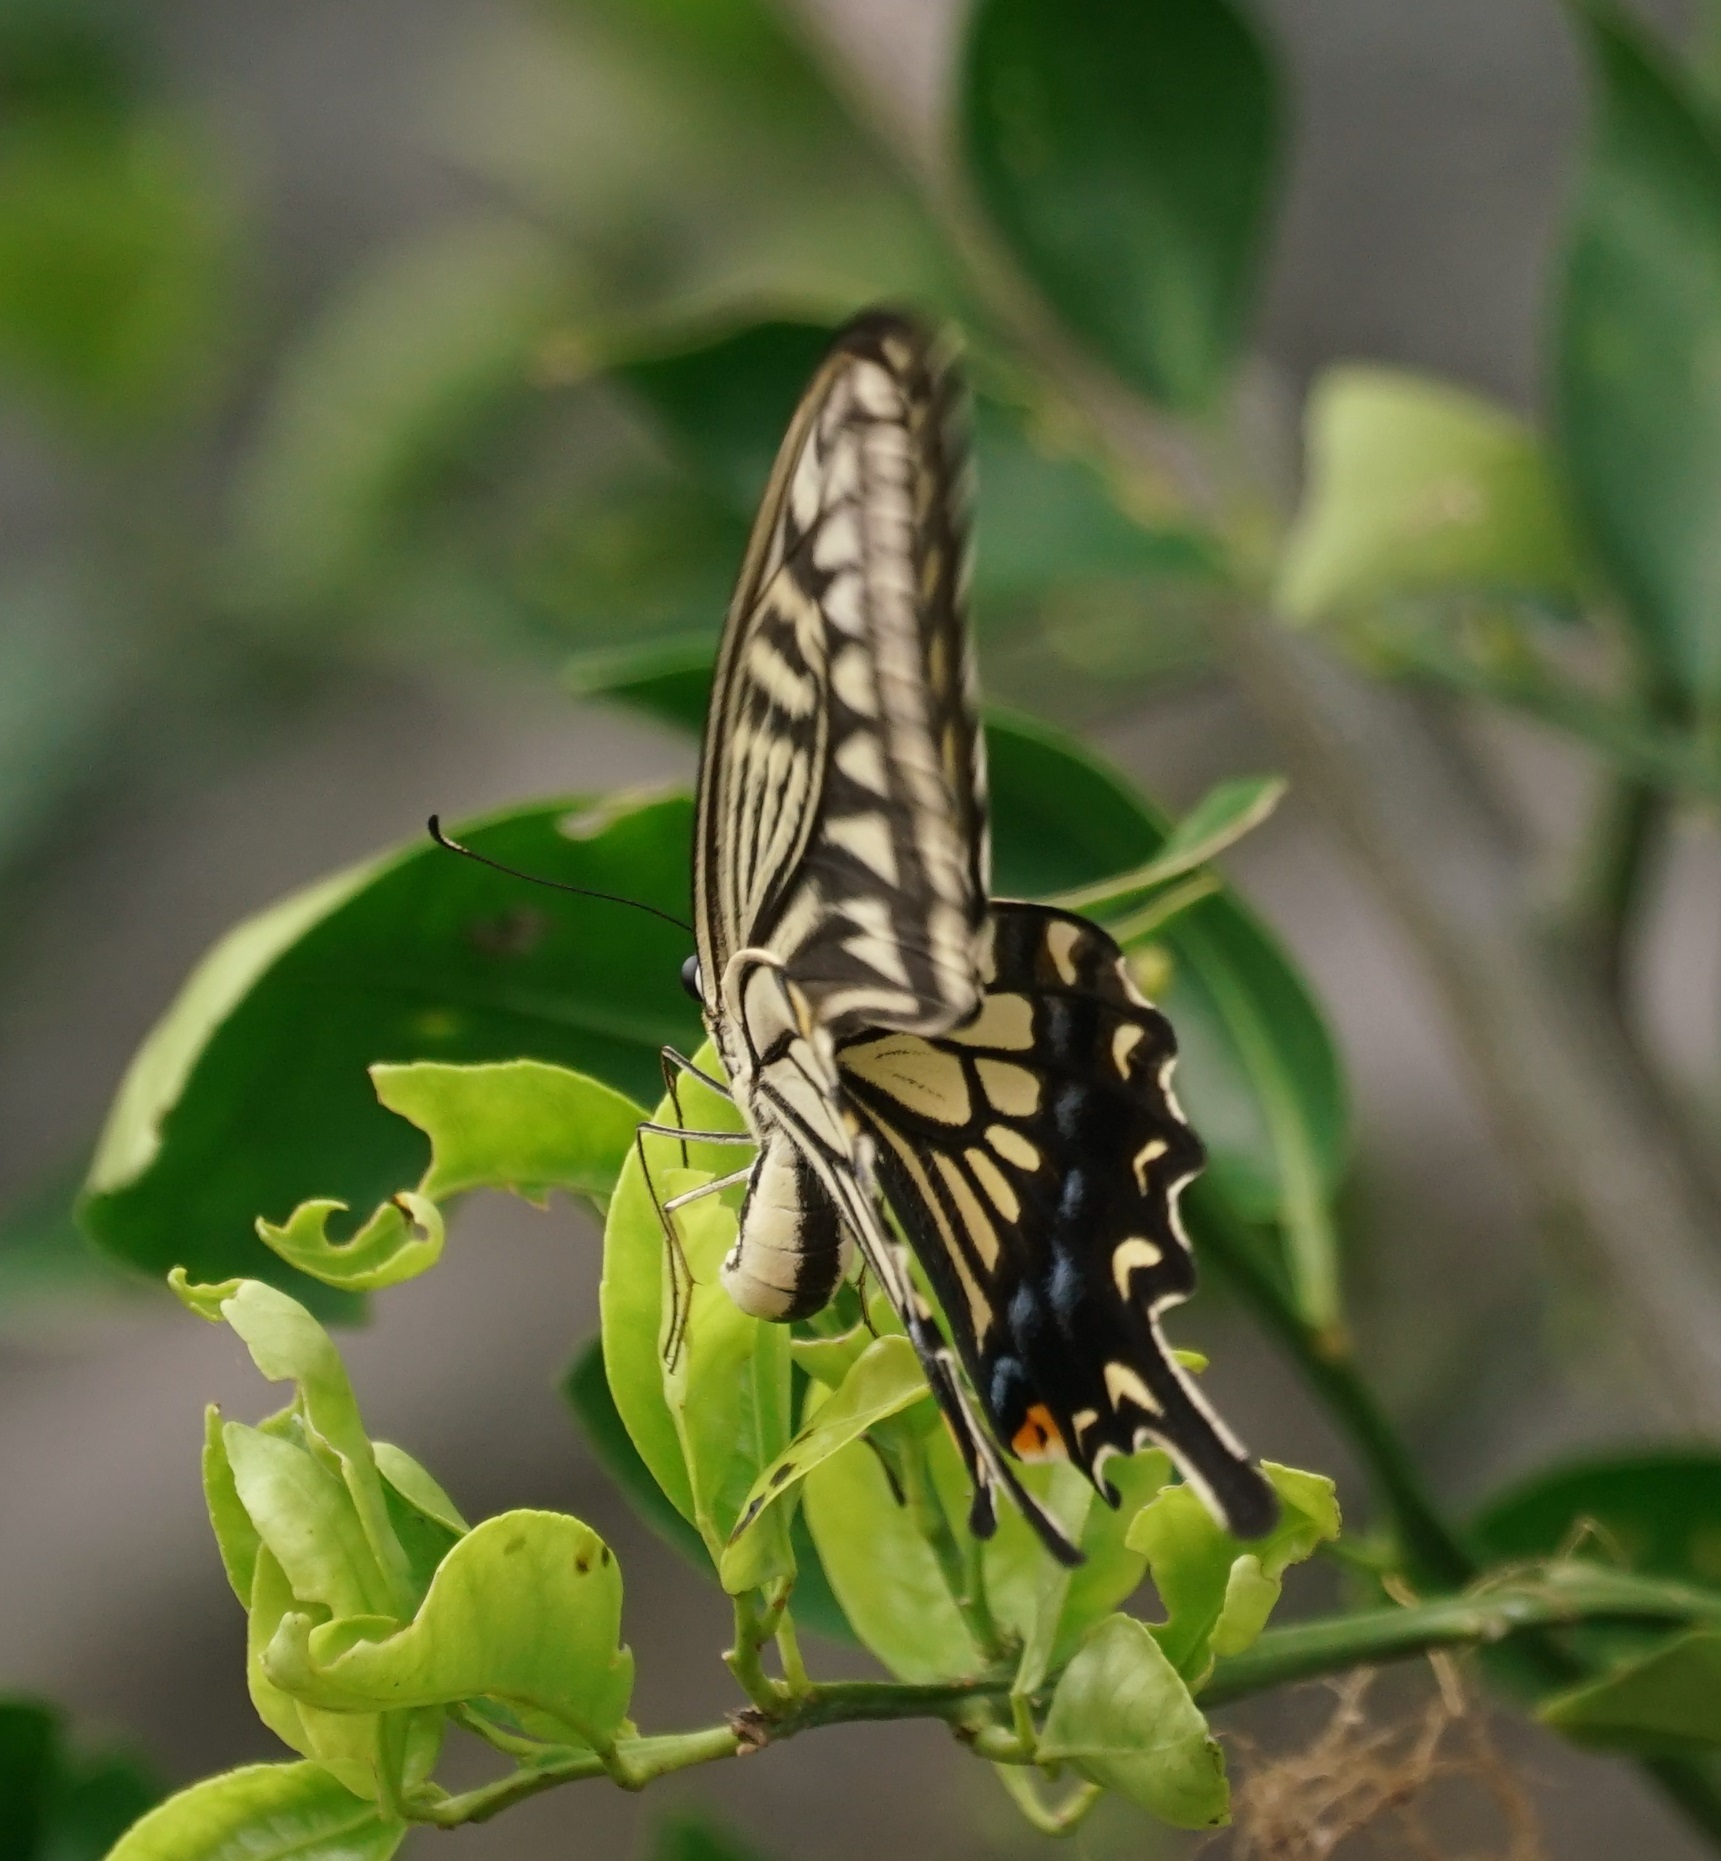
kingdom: Animalia
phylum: Arthropoda
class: Insecta
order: Lepidoptera
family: Papilionidae
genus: Papilio
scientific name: Papilio xuthus
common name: Asian swallowtail
